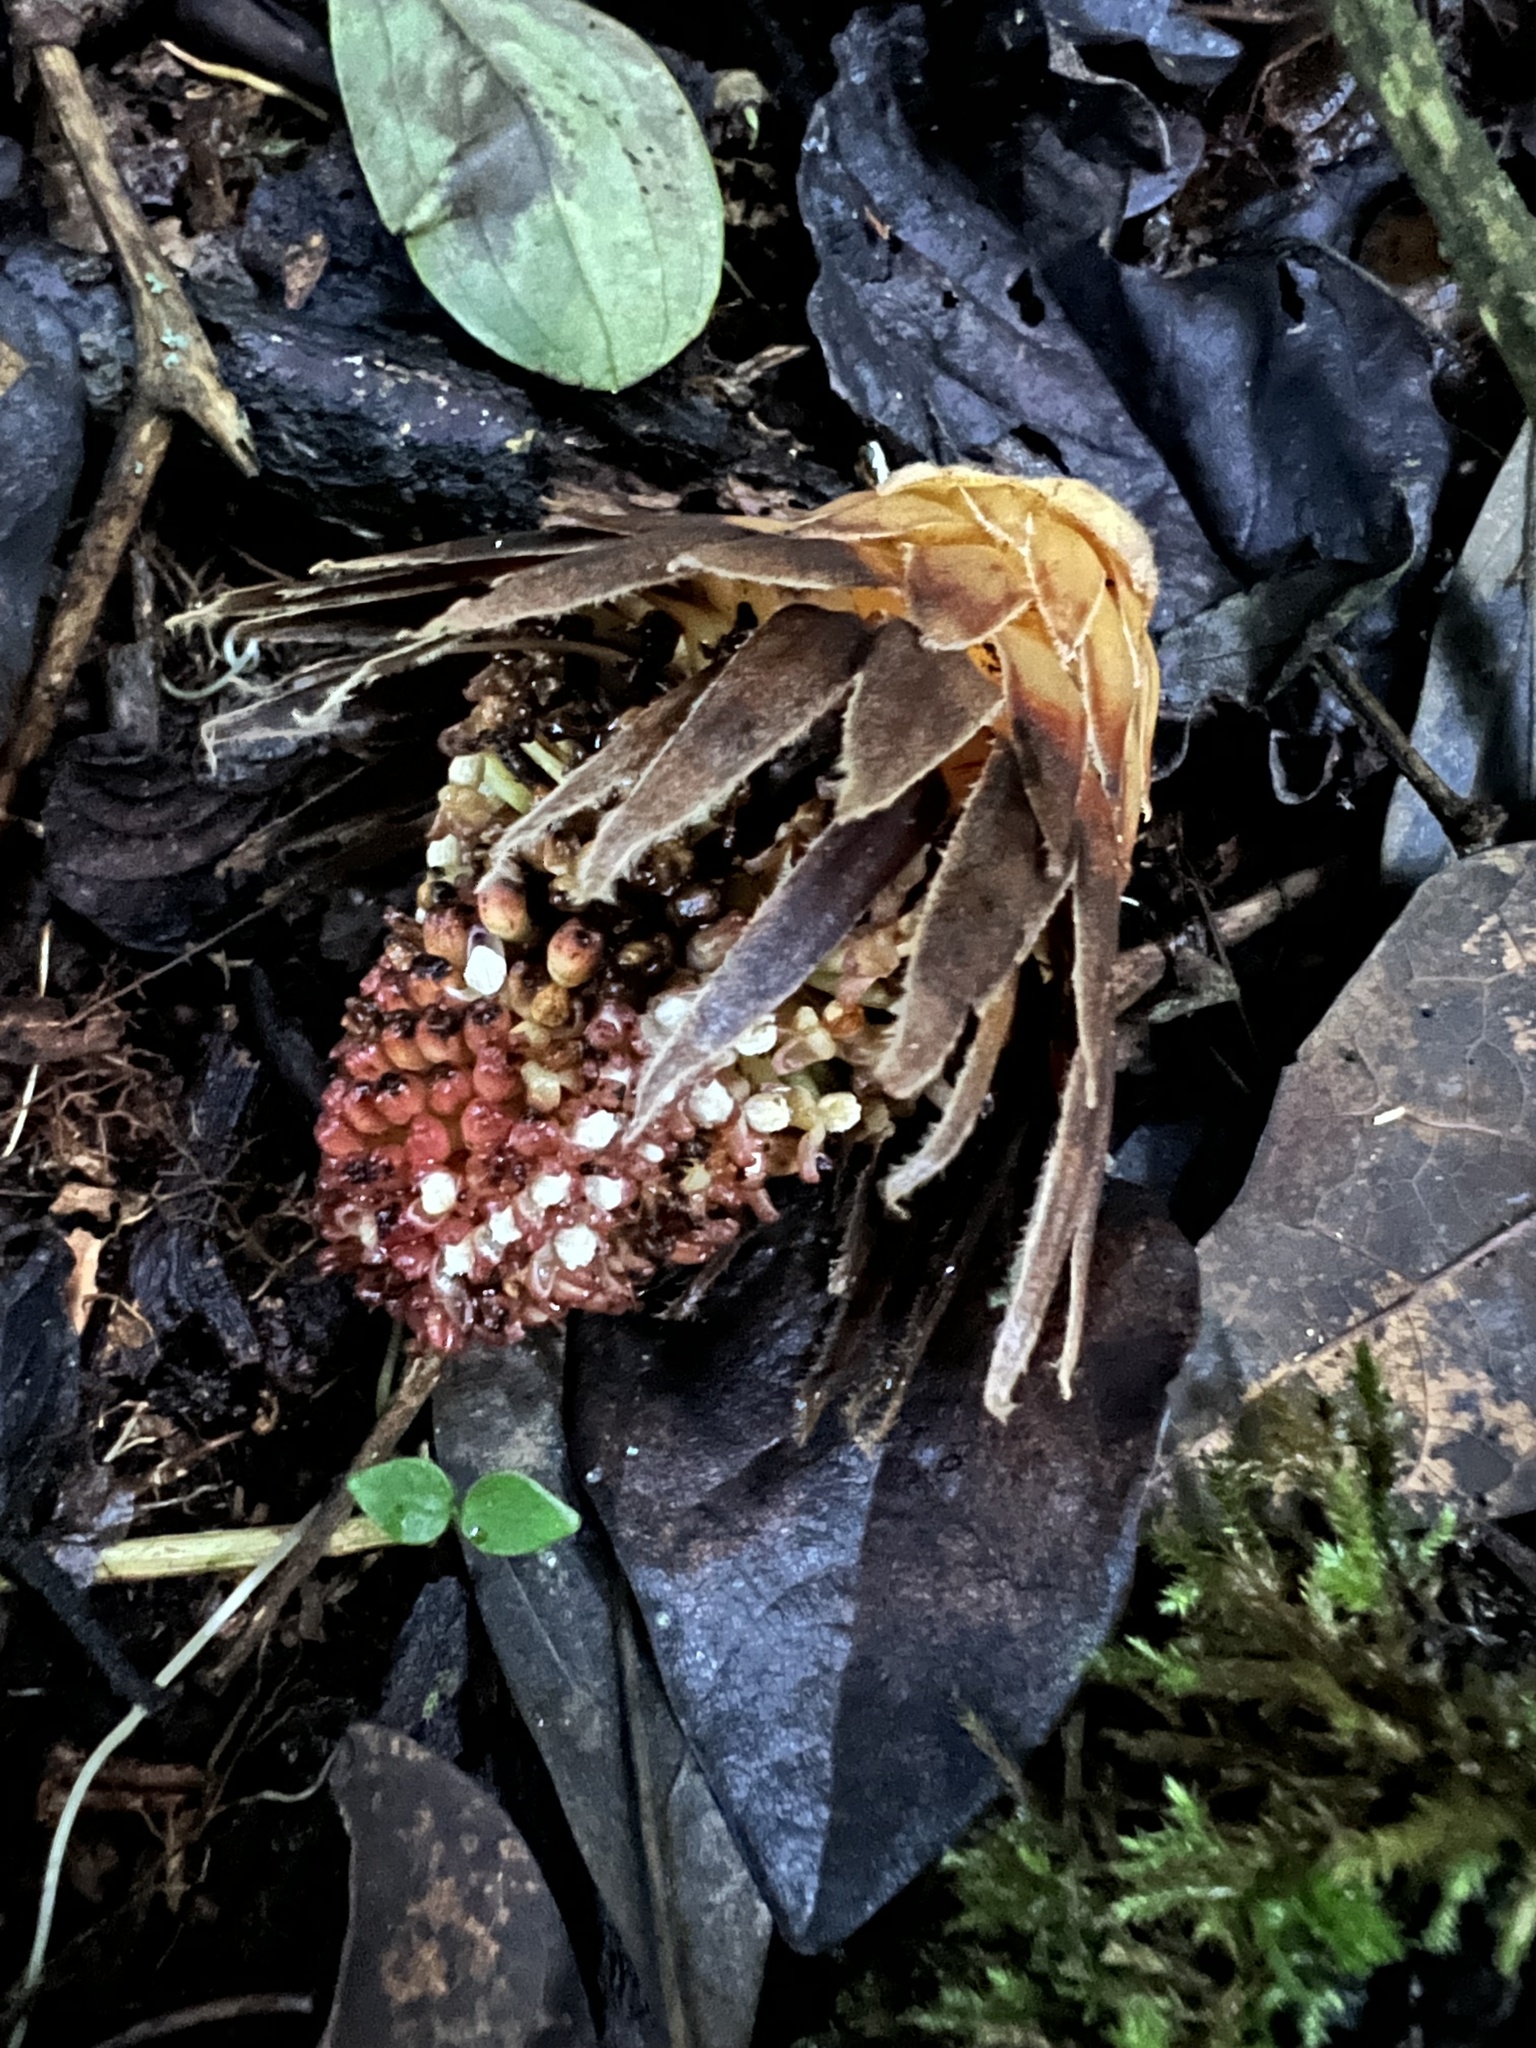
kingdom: Plantae
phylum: Tracheophyta
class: Magnoliopsida
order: Santalales
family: Balanophoraceae
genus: Langsdorffia
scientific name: Langsdorffia hypogaea
